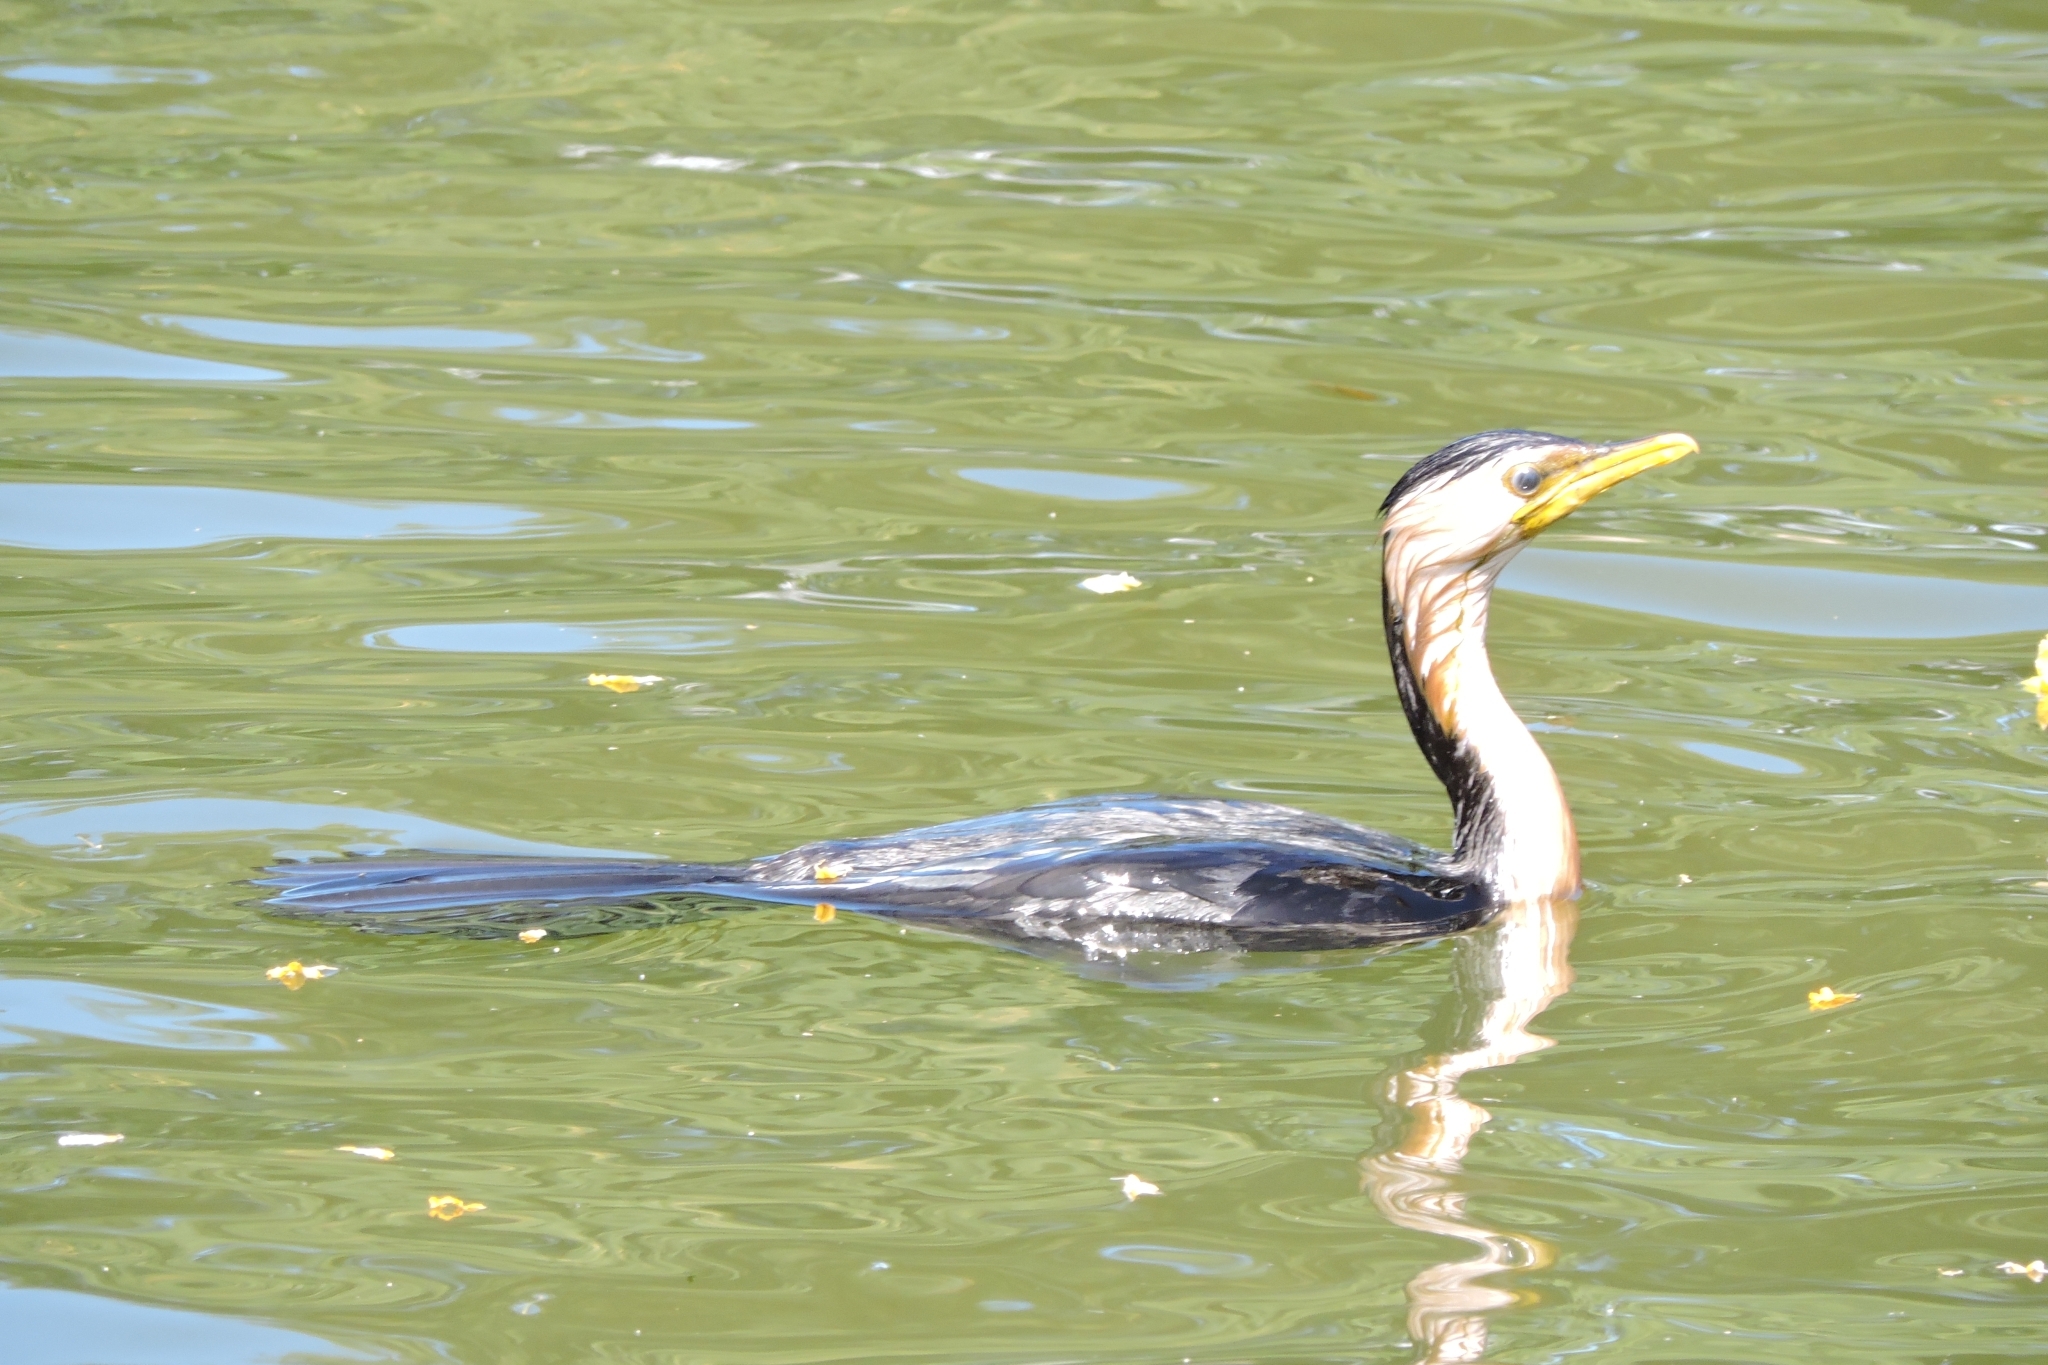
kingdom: Animalia
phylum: Chordata
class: Aves
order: Suliformes
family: Phalacrocoracidae
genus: Microcarbo
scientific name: Microcarbo melanoleucos
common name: Little pied cormorant
